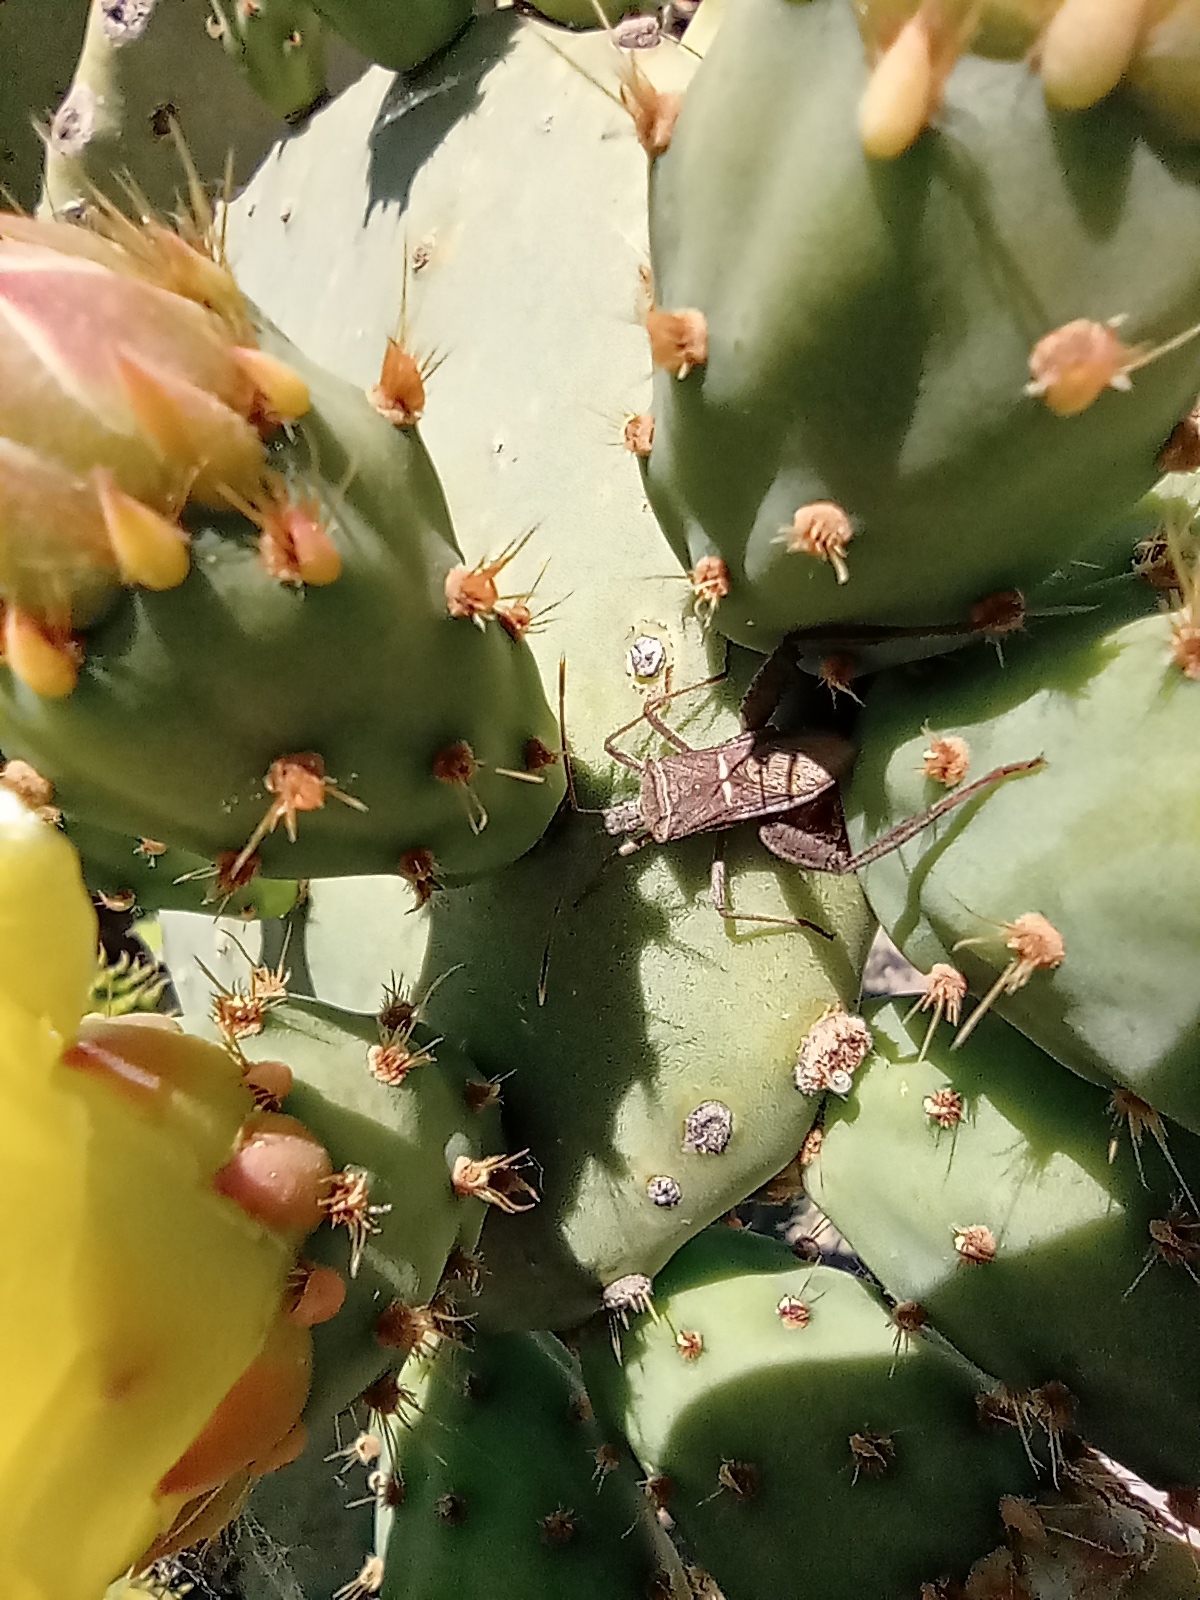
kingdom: Animalia
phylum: Arthropoda
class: Insecta
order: Hemiptera
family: Coreidae
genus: Leptoglossus
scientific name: Leptoglossus crassicornis
